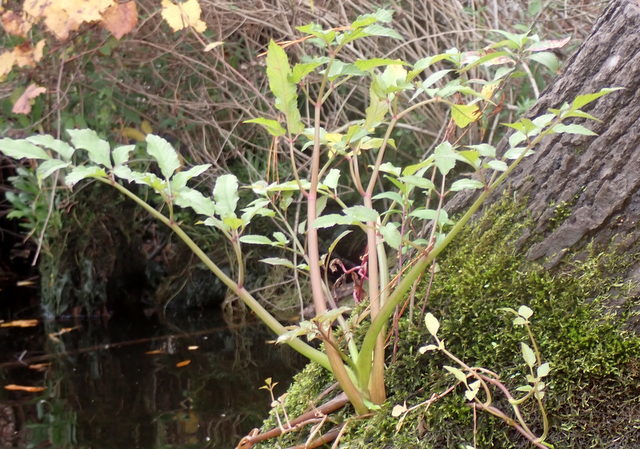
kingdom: Plantae
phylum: Tracheophyta
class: Magnoliopsida
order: Apiales
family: Apiaceae
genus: Cicuta
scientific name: Cicuta maculata
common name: Spotted cowbane
